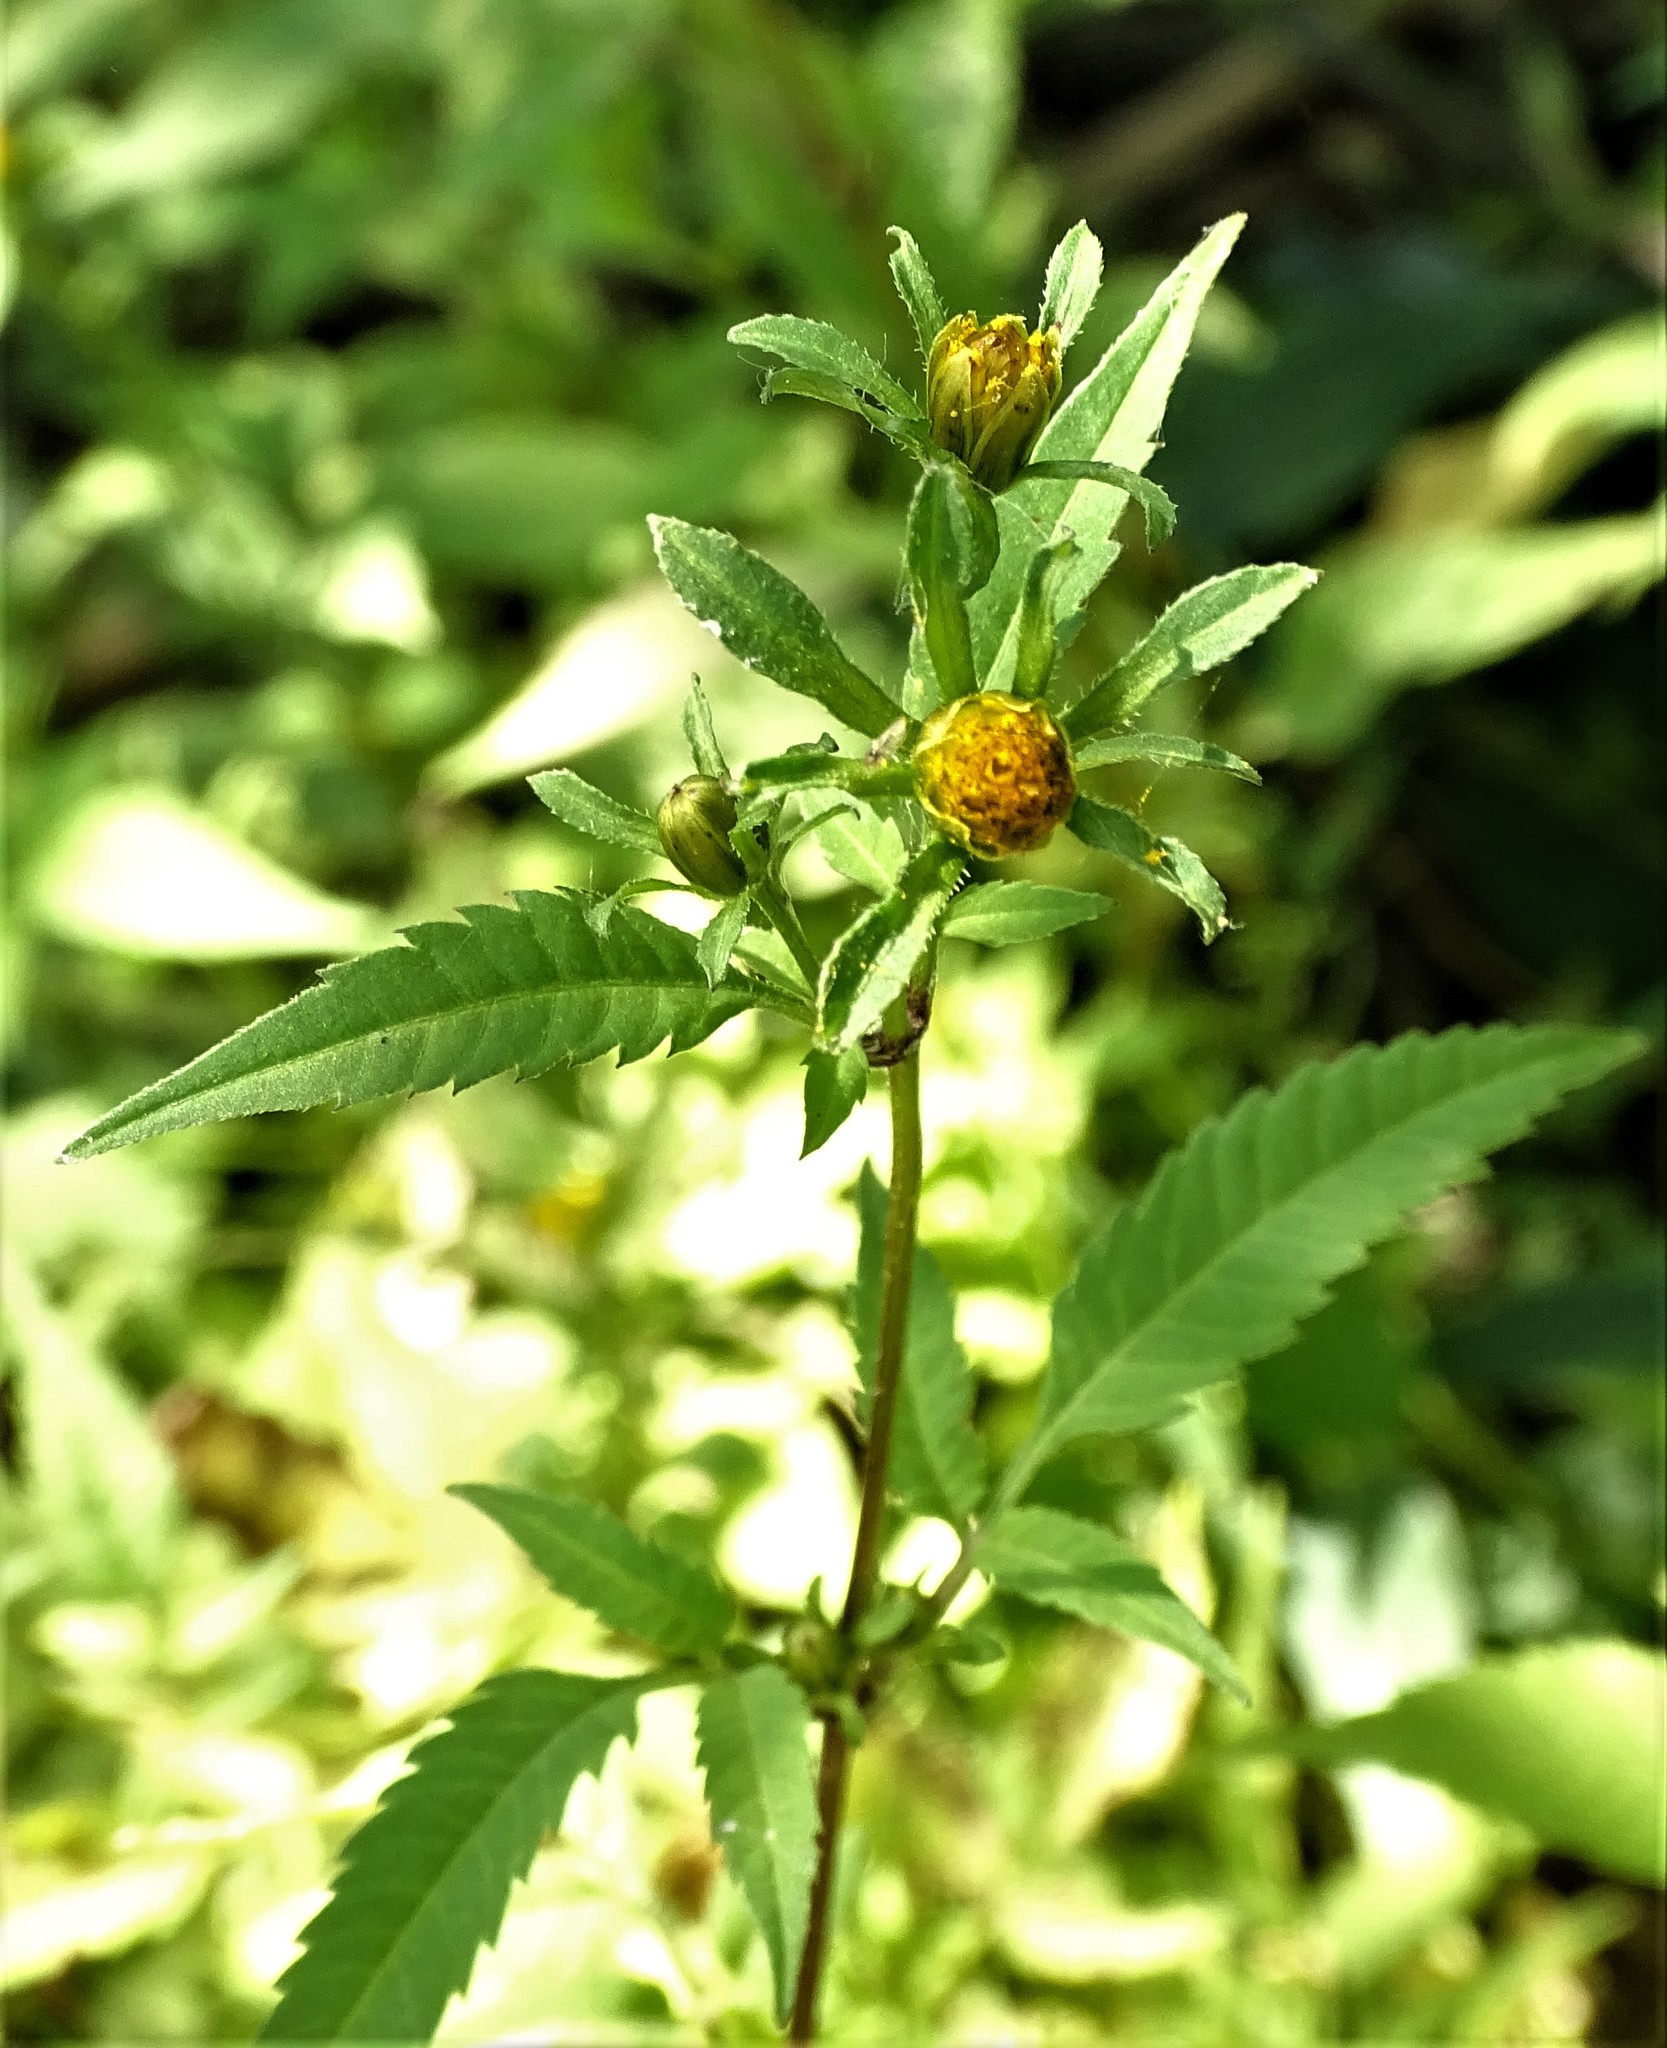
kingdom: Plantae
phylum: Tracheophyta
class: Magnoliopsida
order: Asterales
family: Asteraceae
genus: Bidens
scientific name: Bidens frondosa
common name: Beggarticks
